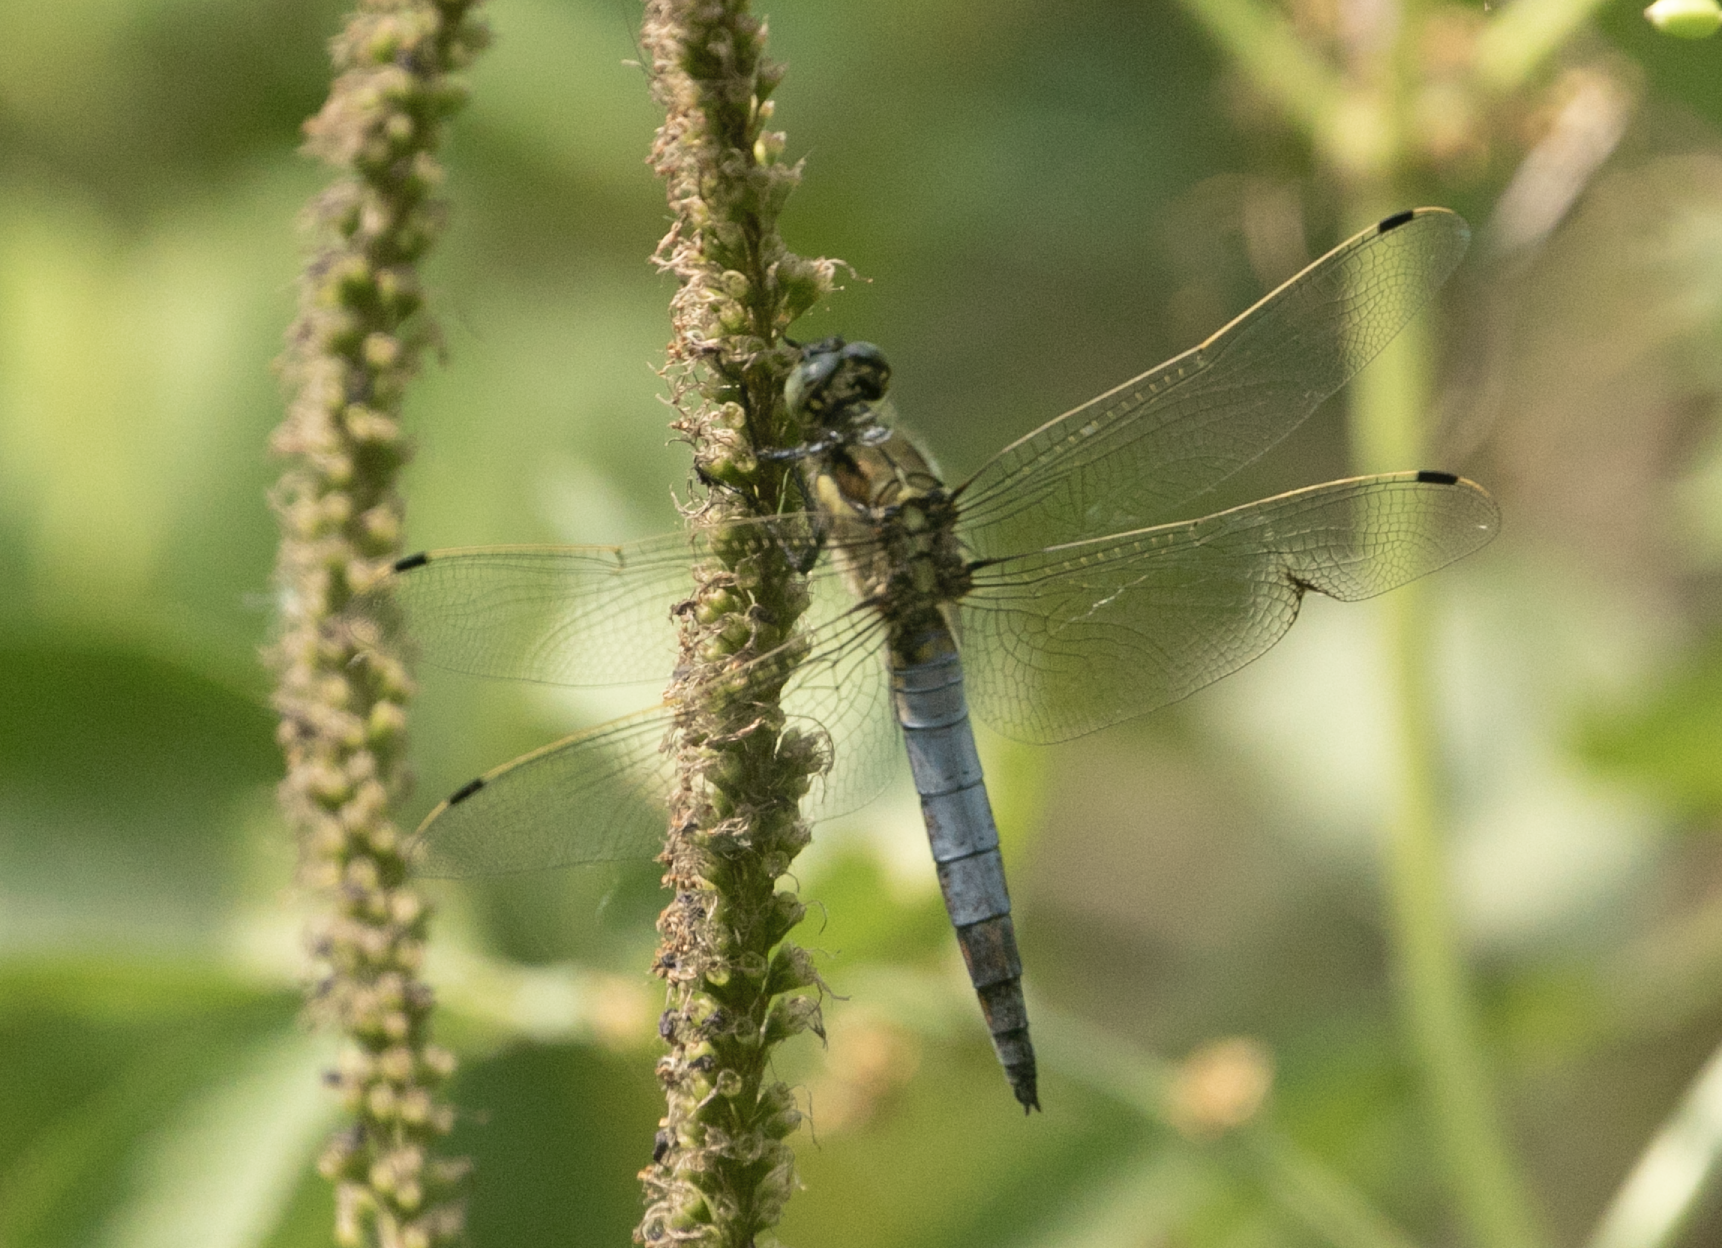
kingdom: Animalia
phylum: Arthropoda
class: Insecta
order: Odonata
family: Libellulidae
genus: Orthetrum
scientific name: Orthetrum cancellatum
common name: Black-tailed skimmer
